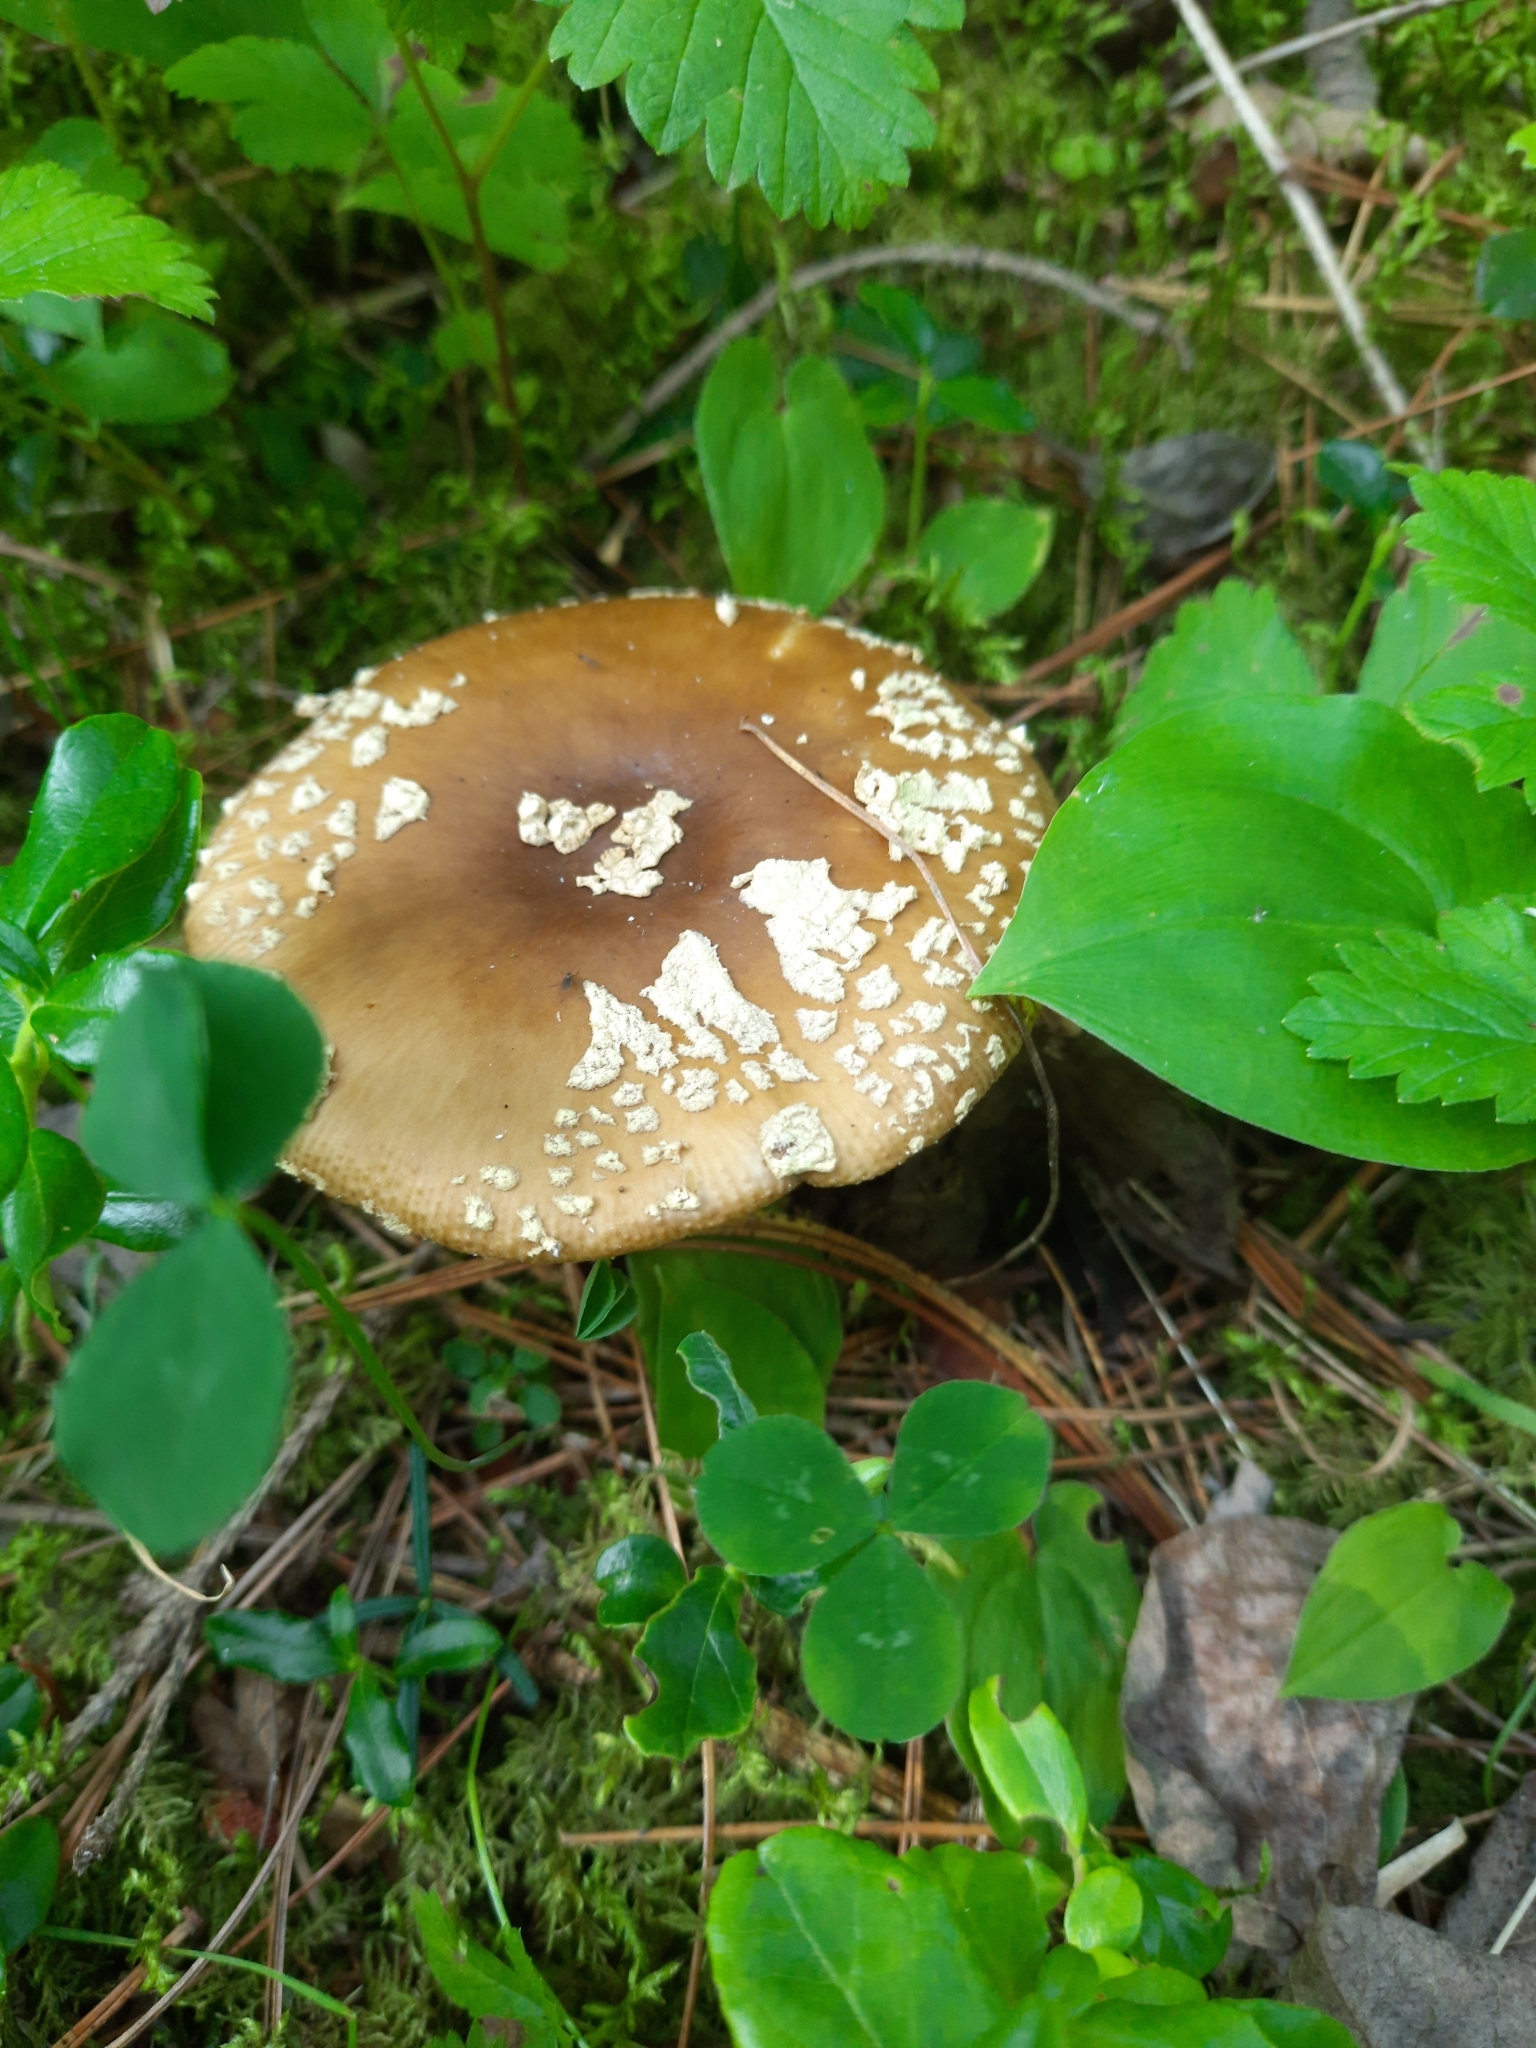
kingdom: Fungi
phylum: Basidiomycota
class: Agaricomycetes
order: Agaricales
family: Amanitaceae
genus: Amanita
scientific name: Amanita regalis
